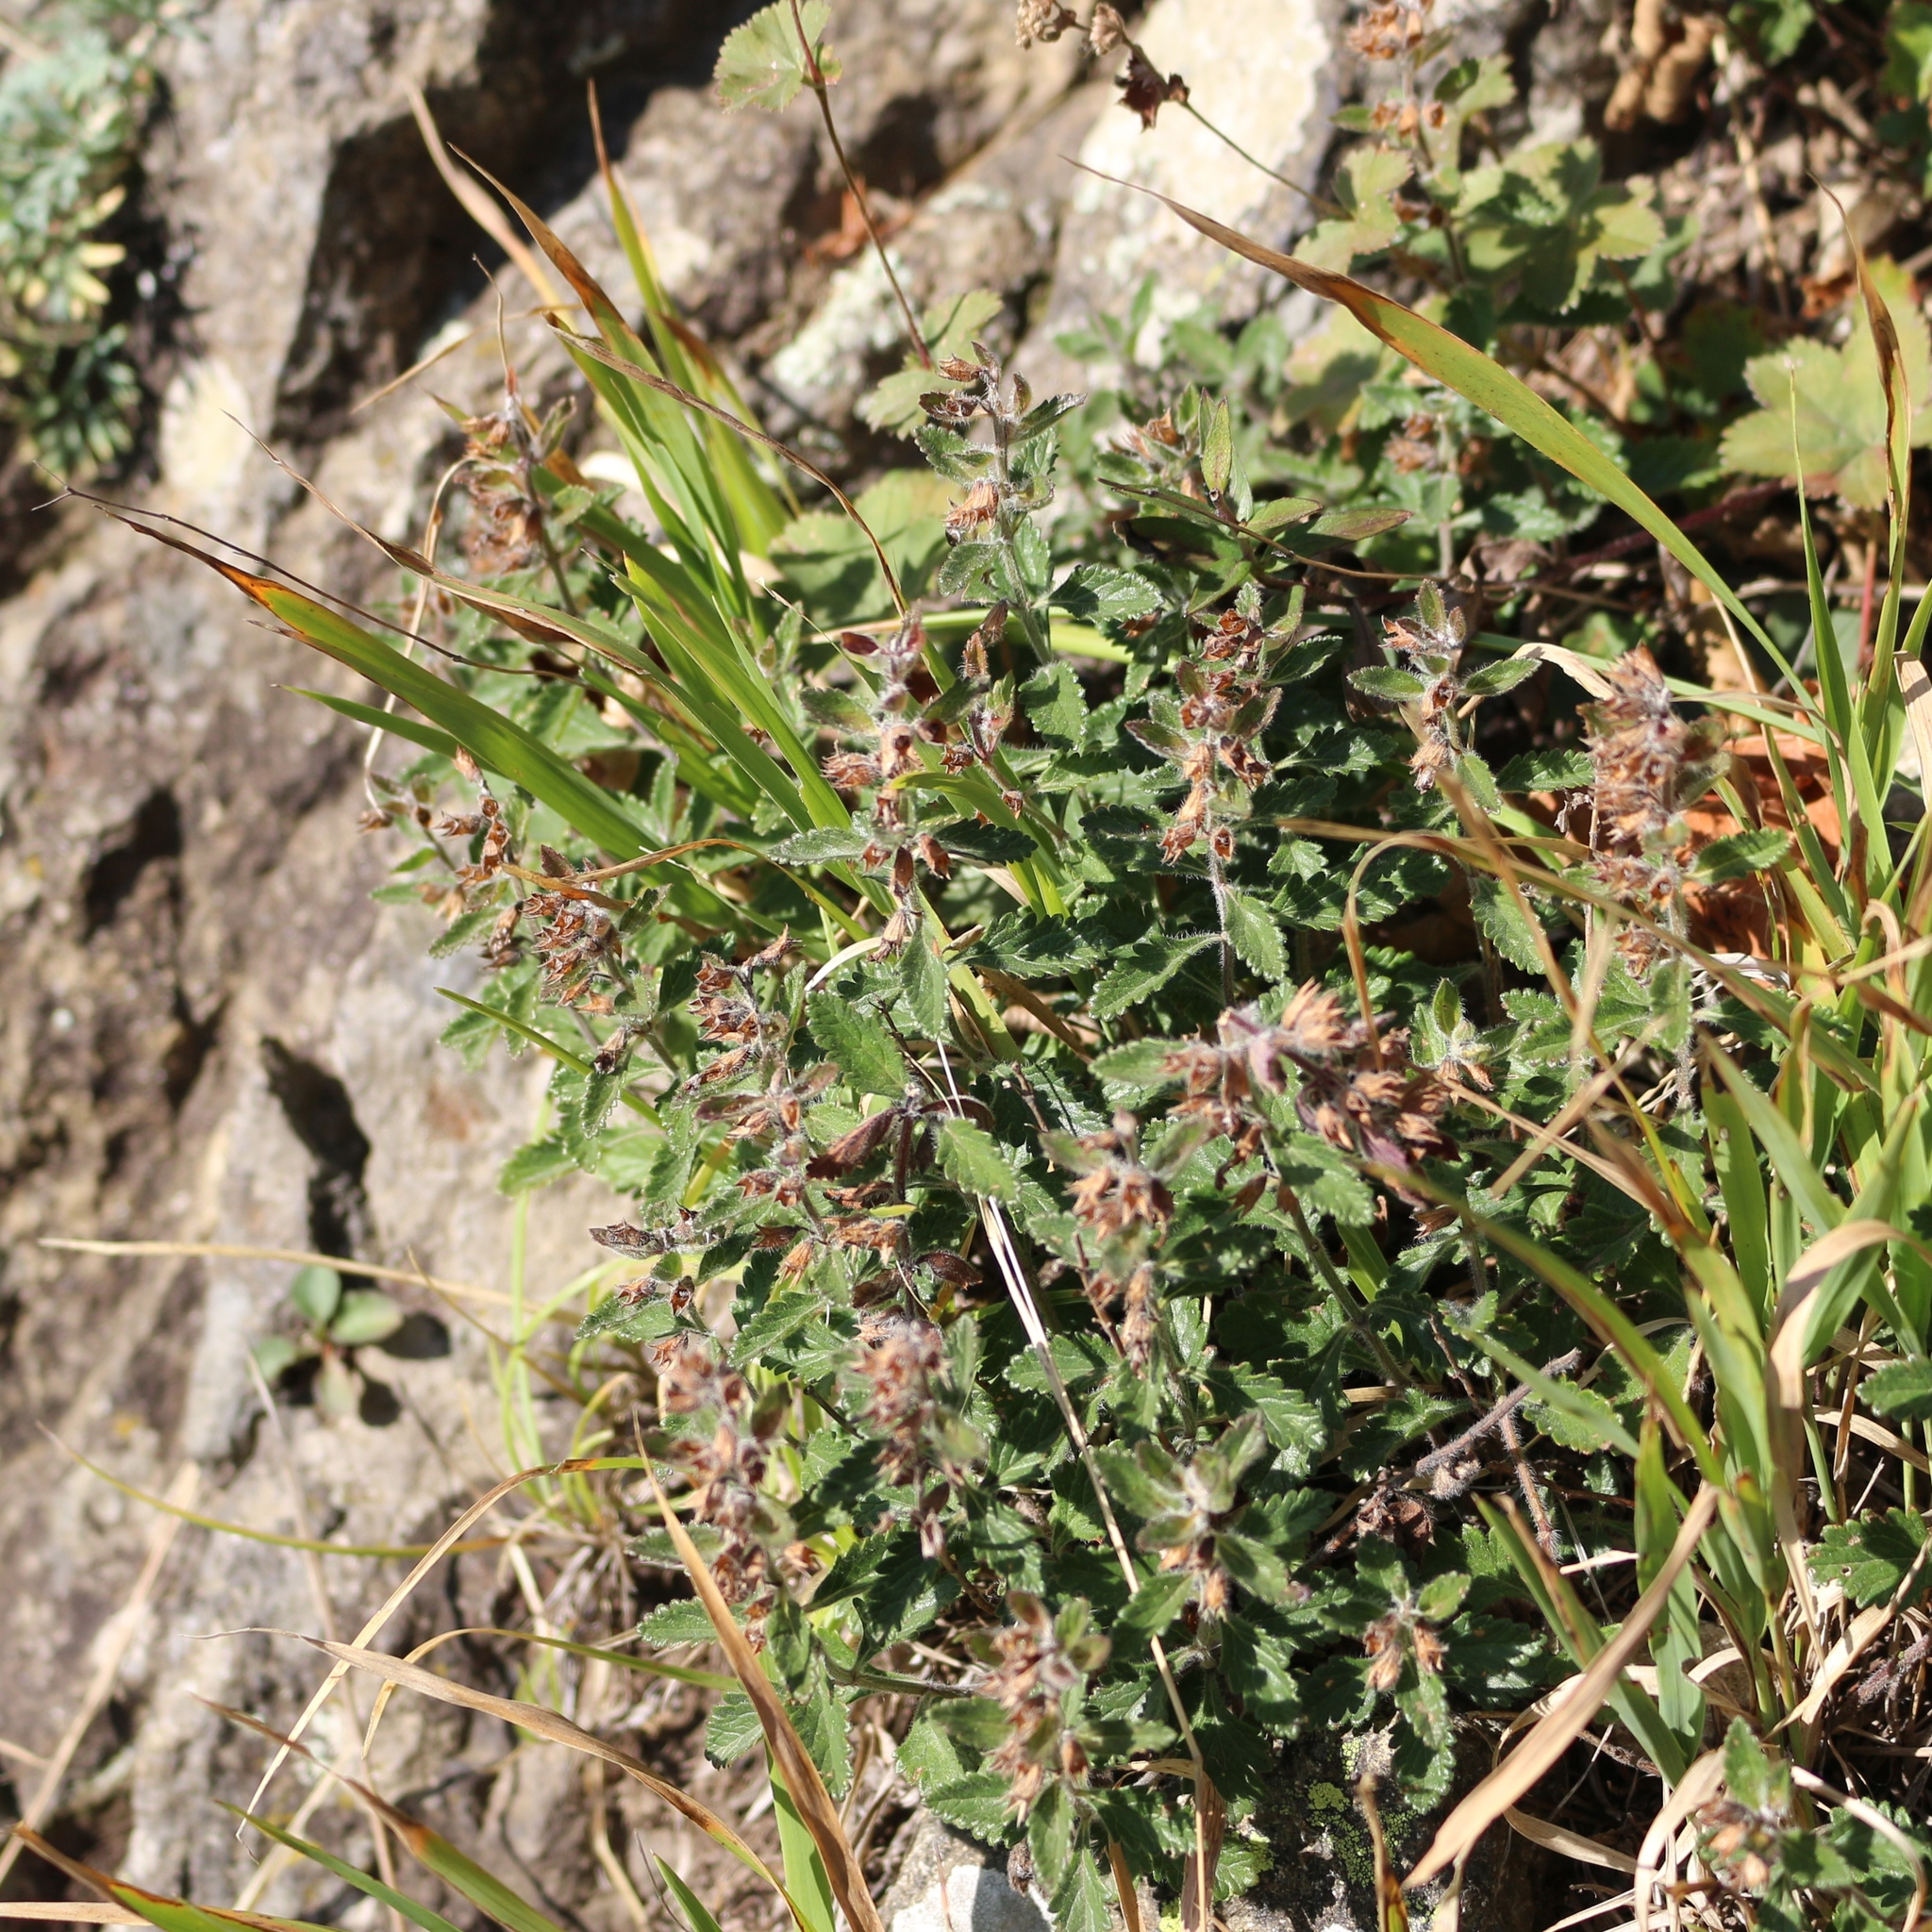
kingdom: Plantae
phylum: Tracheophyta
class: Magnoliopsida
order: Lamiales
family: Lamiaceae
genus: Teucrium
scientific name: Teucrium chamaedrys
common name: Wall germander
